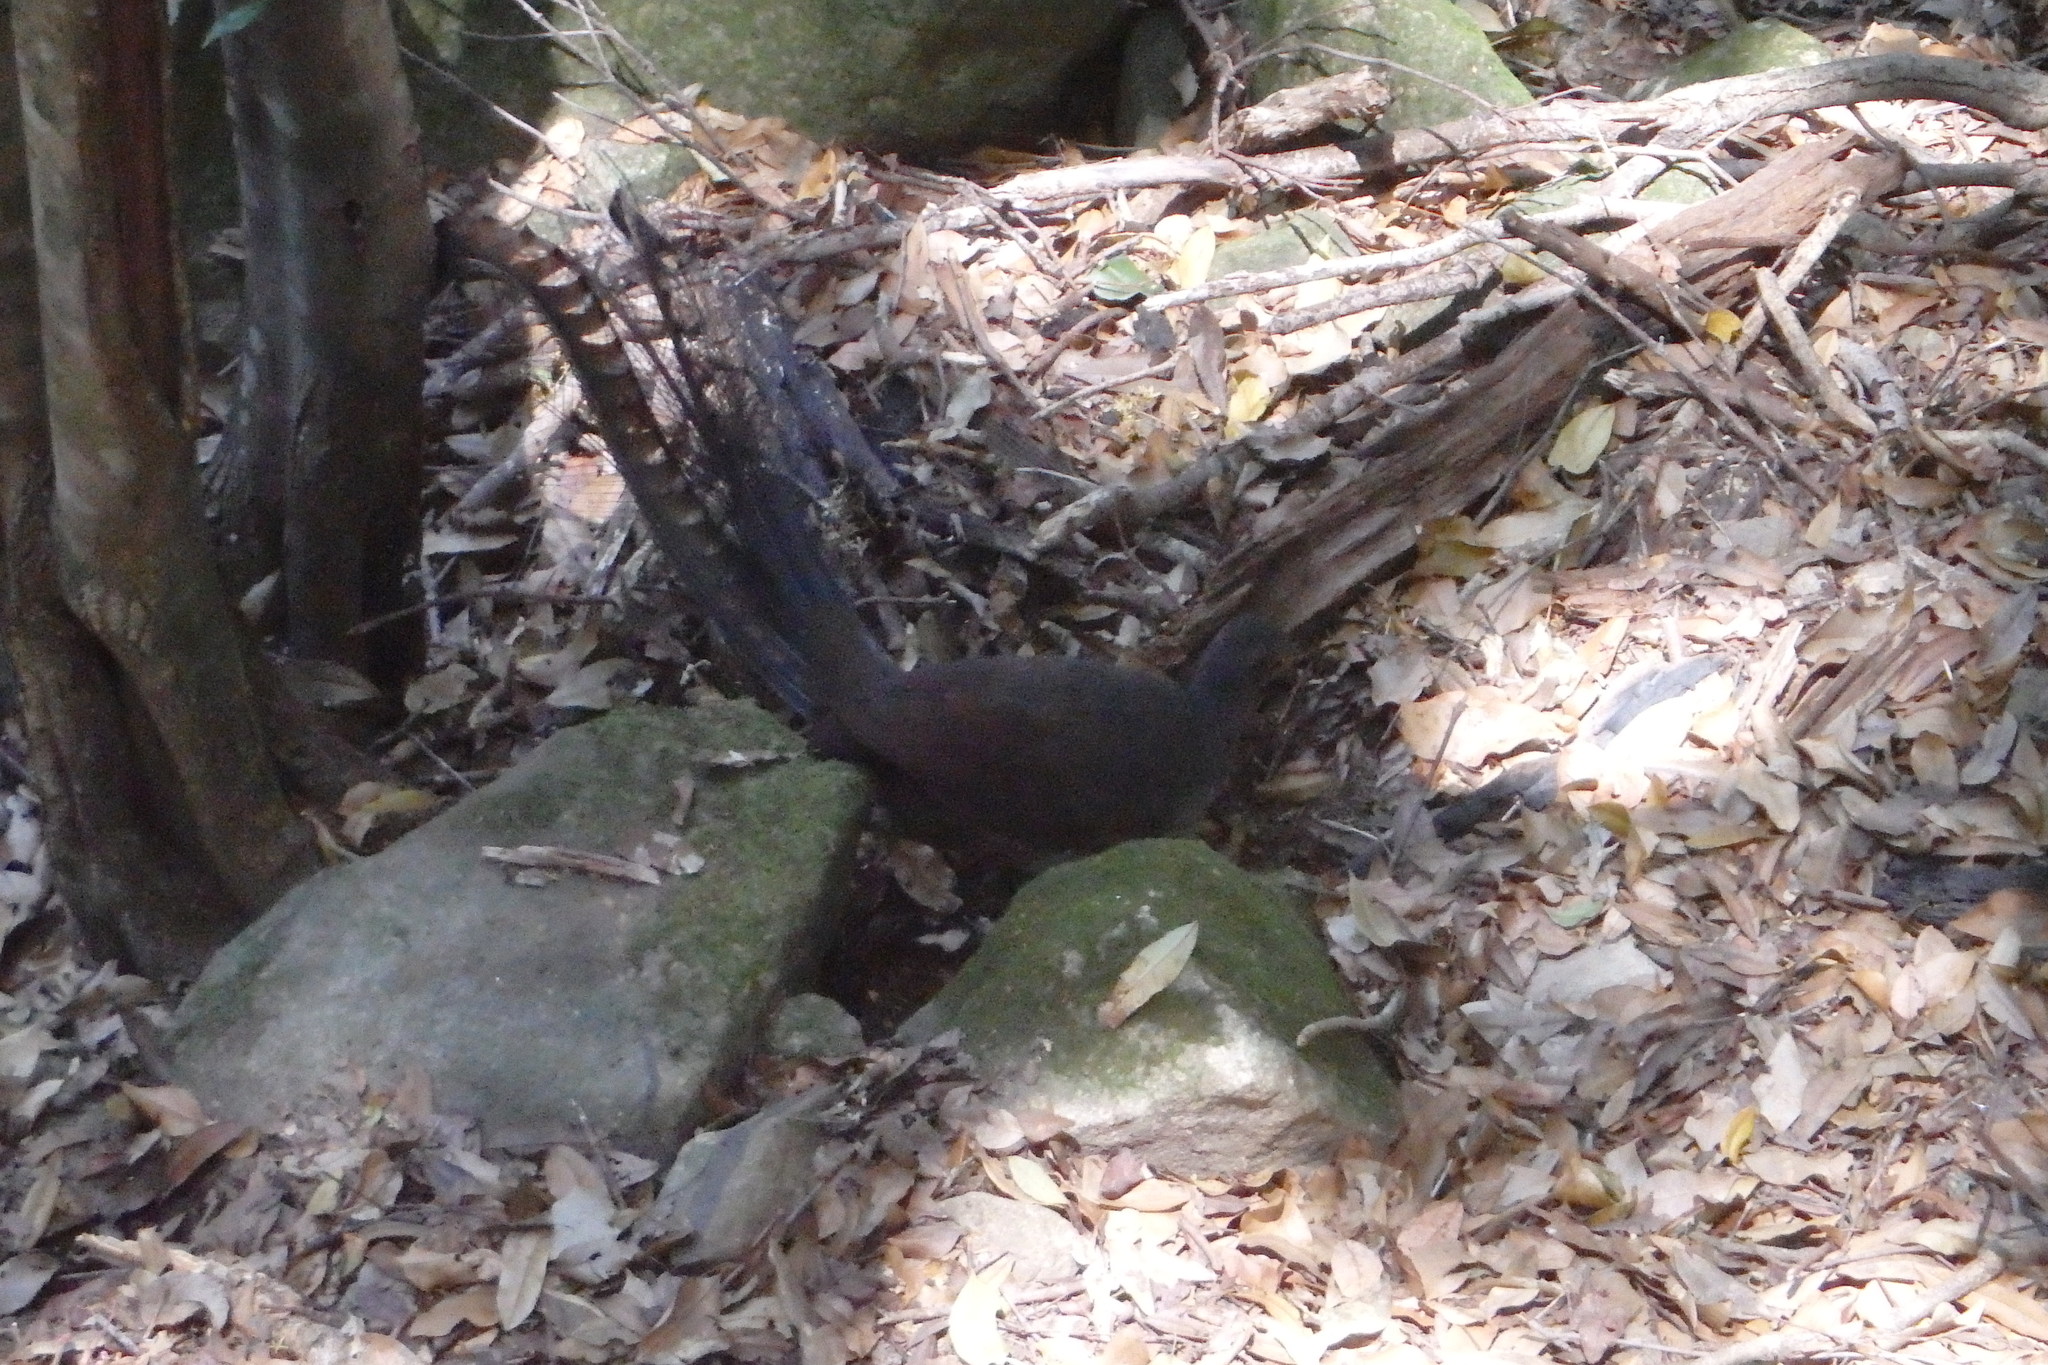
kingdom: Animalia
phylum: Chordata
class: Aves
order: Passeriformes
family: Menuridae
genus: Menura
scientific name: Menura novaehollandiae
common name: Superb lyrebird
